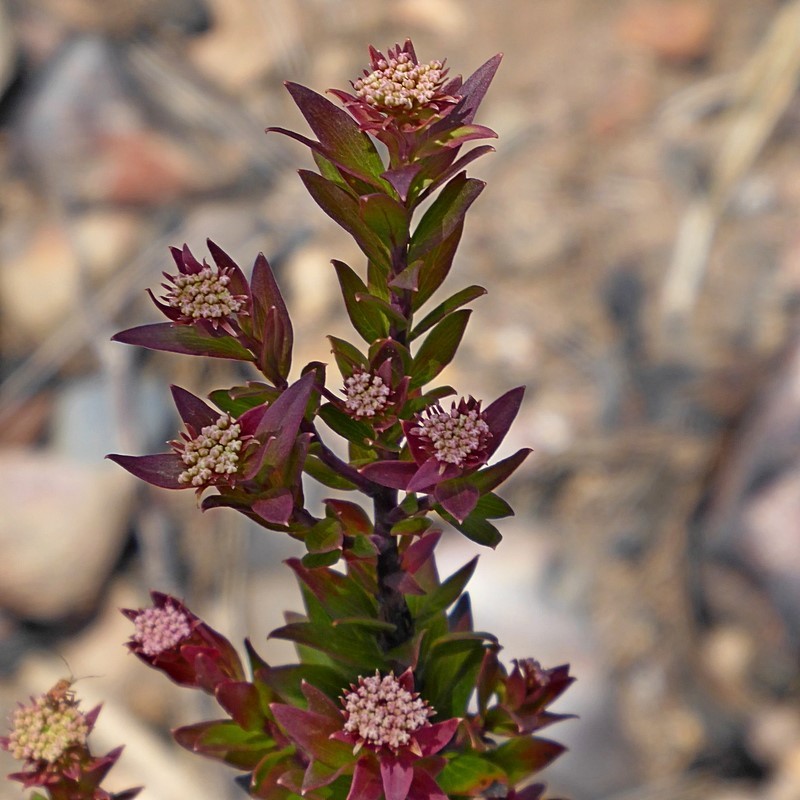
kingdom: Plantae
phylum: Tracheophyta
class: Magnoliopsida
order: Apiales
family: Apiaceae
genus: Platysace
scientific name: Platysace lanceolata
